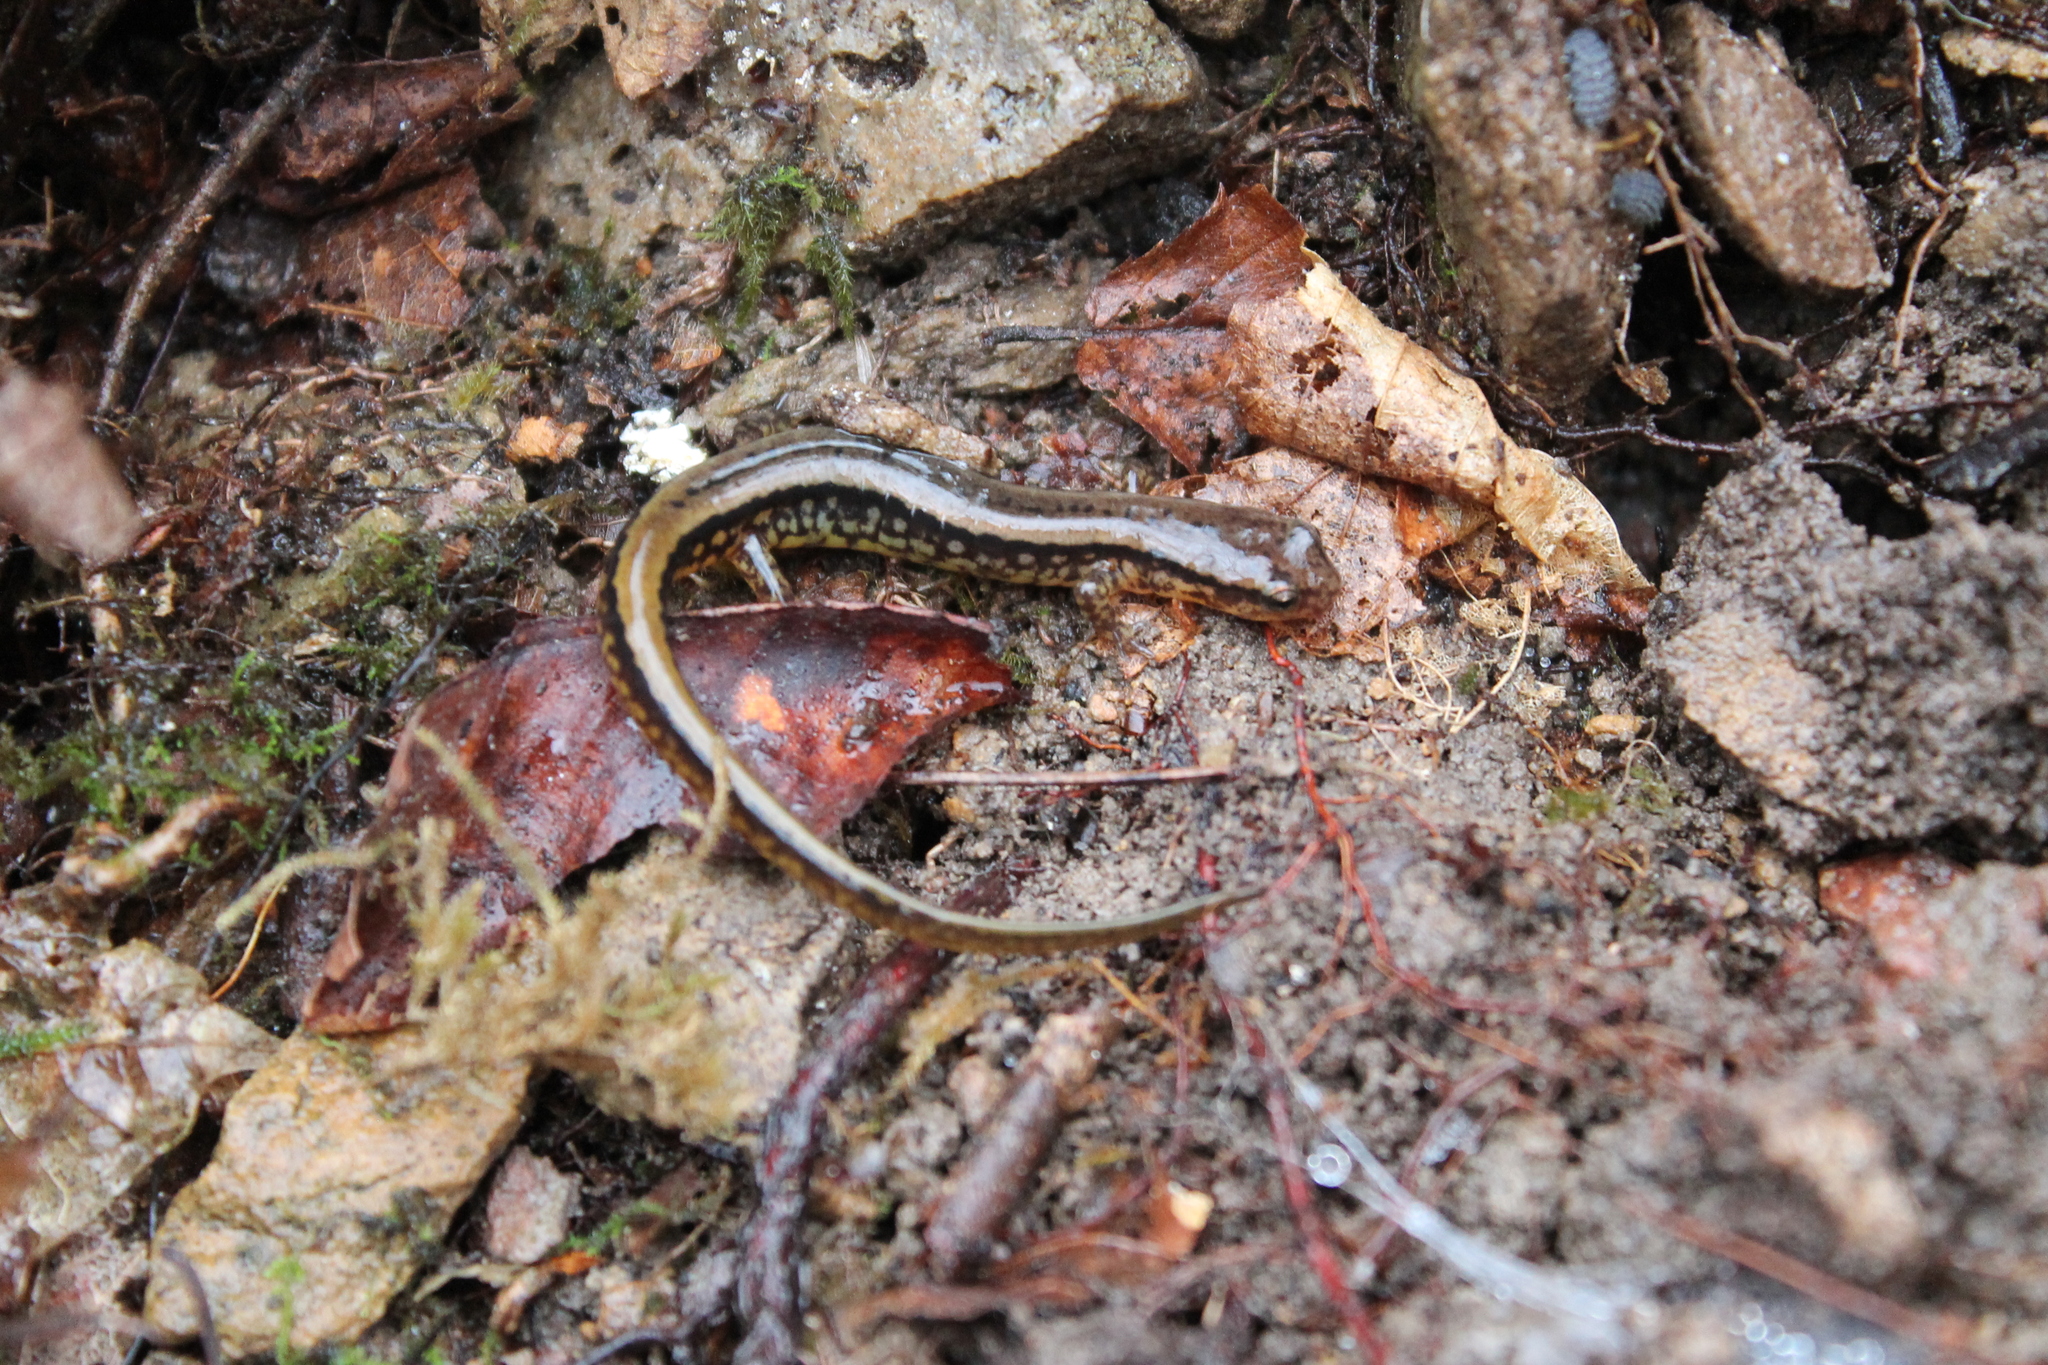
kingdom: Animalia
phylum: Chordata
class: Amphibia
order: Caudata
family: Plethodontidae
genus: Eurycea
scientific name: Eurycea cirrigera
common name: Southern two-lined salamander
